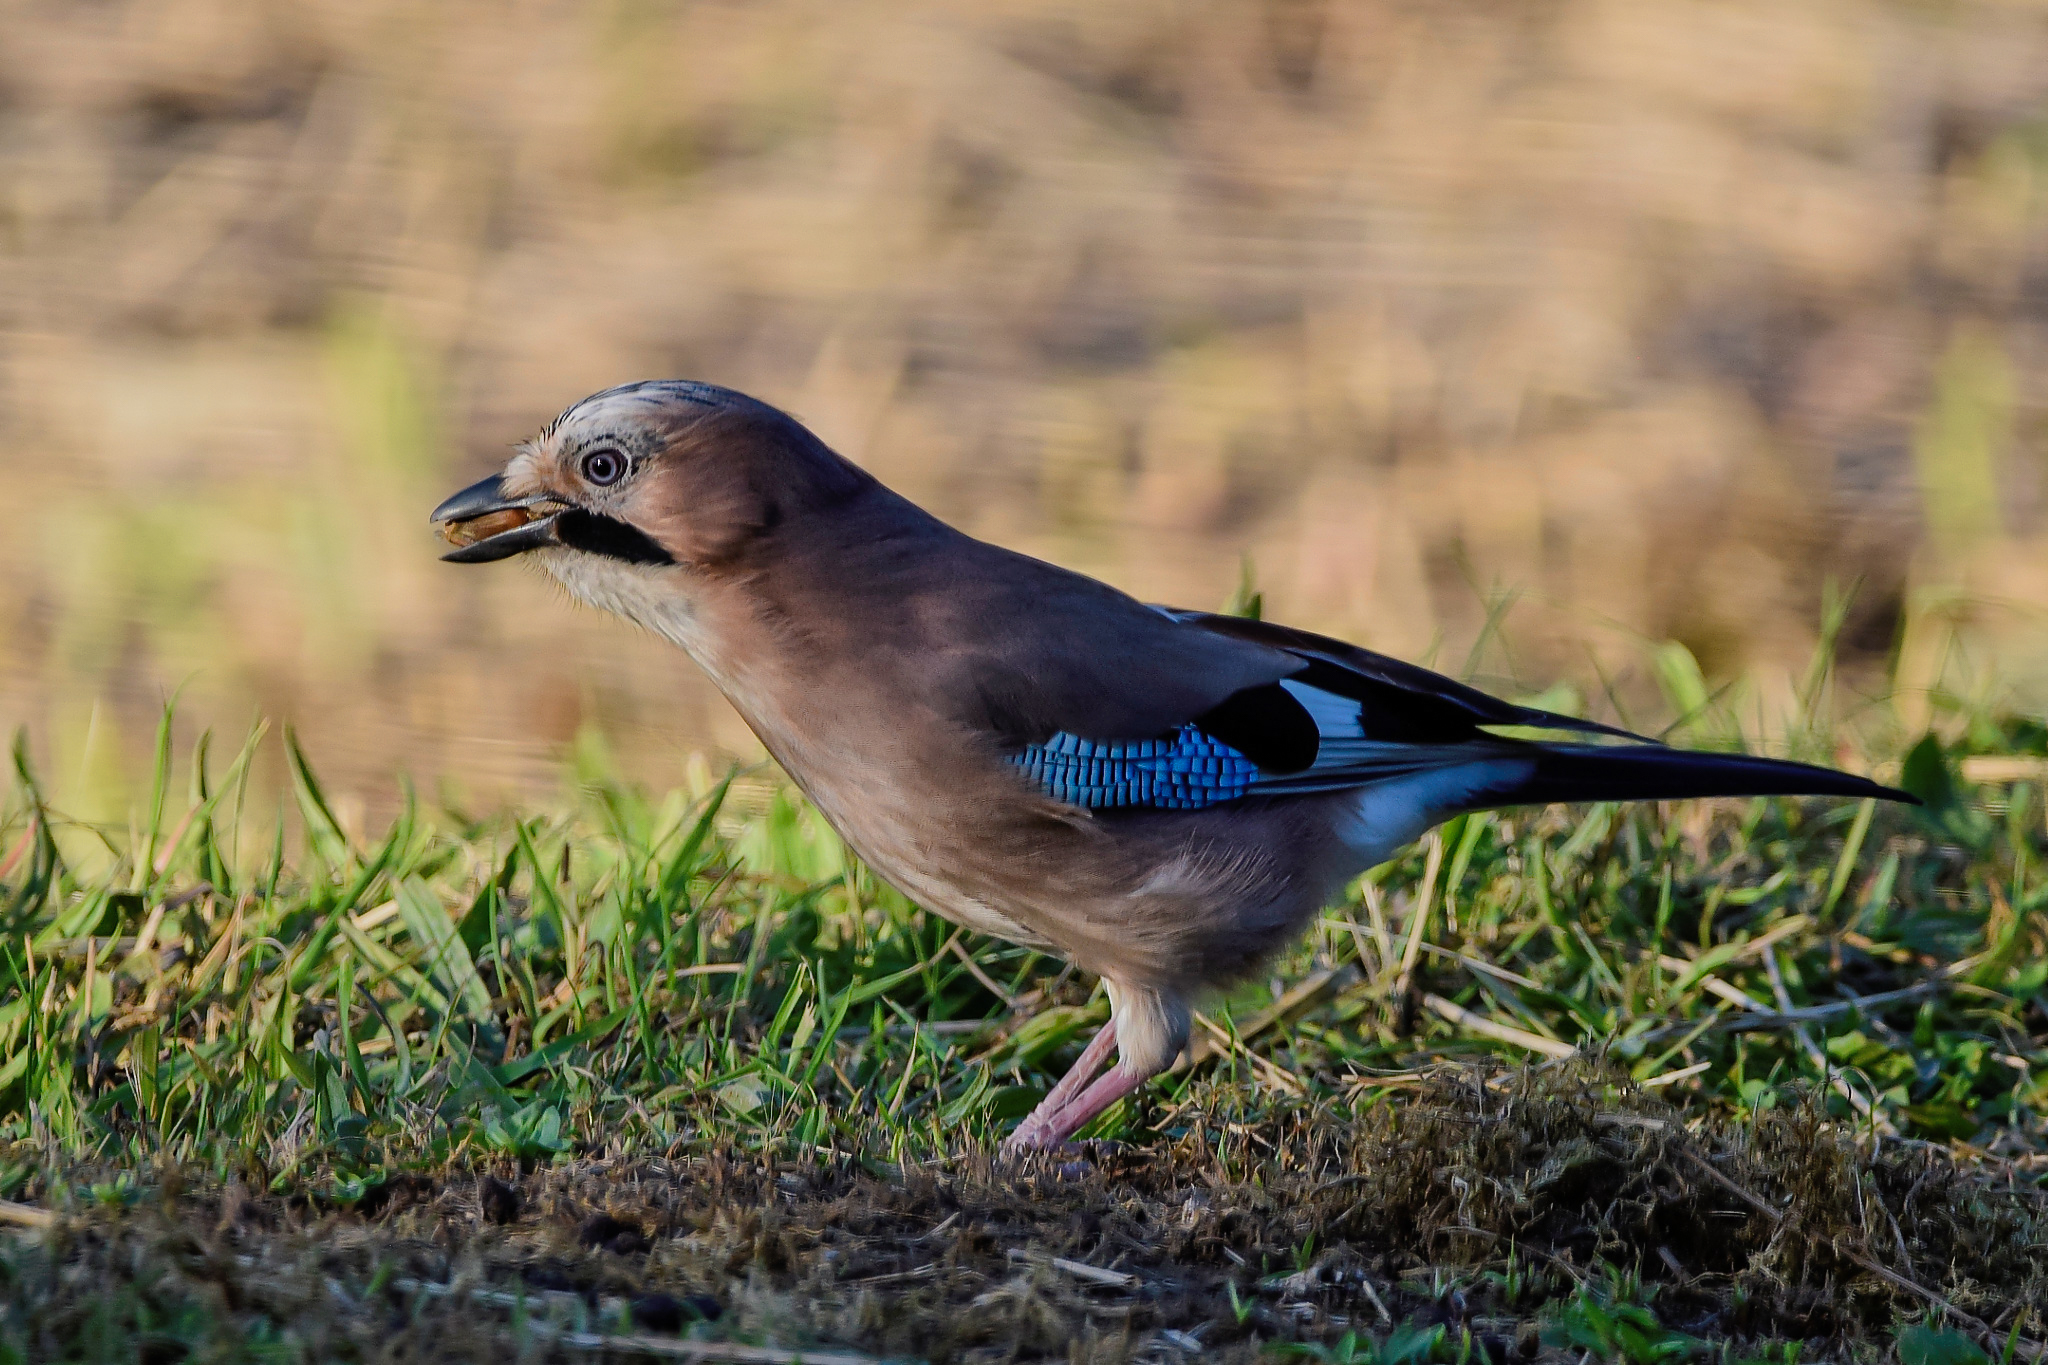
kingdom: Animalia
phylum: Chordata
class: Aves
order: Passeriformes
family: Corvidae
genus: Garrulus
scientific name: Garrulus glandarius
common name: Eurasian jay
